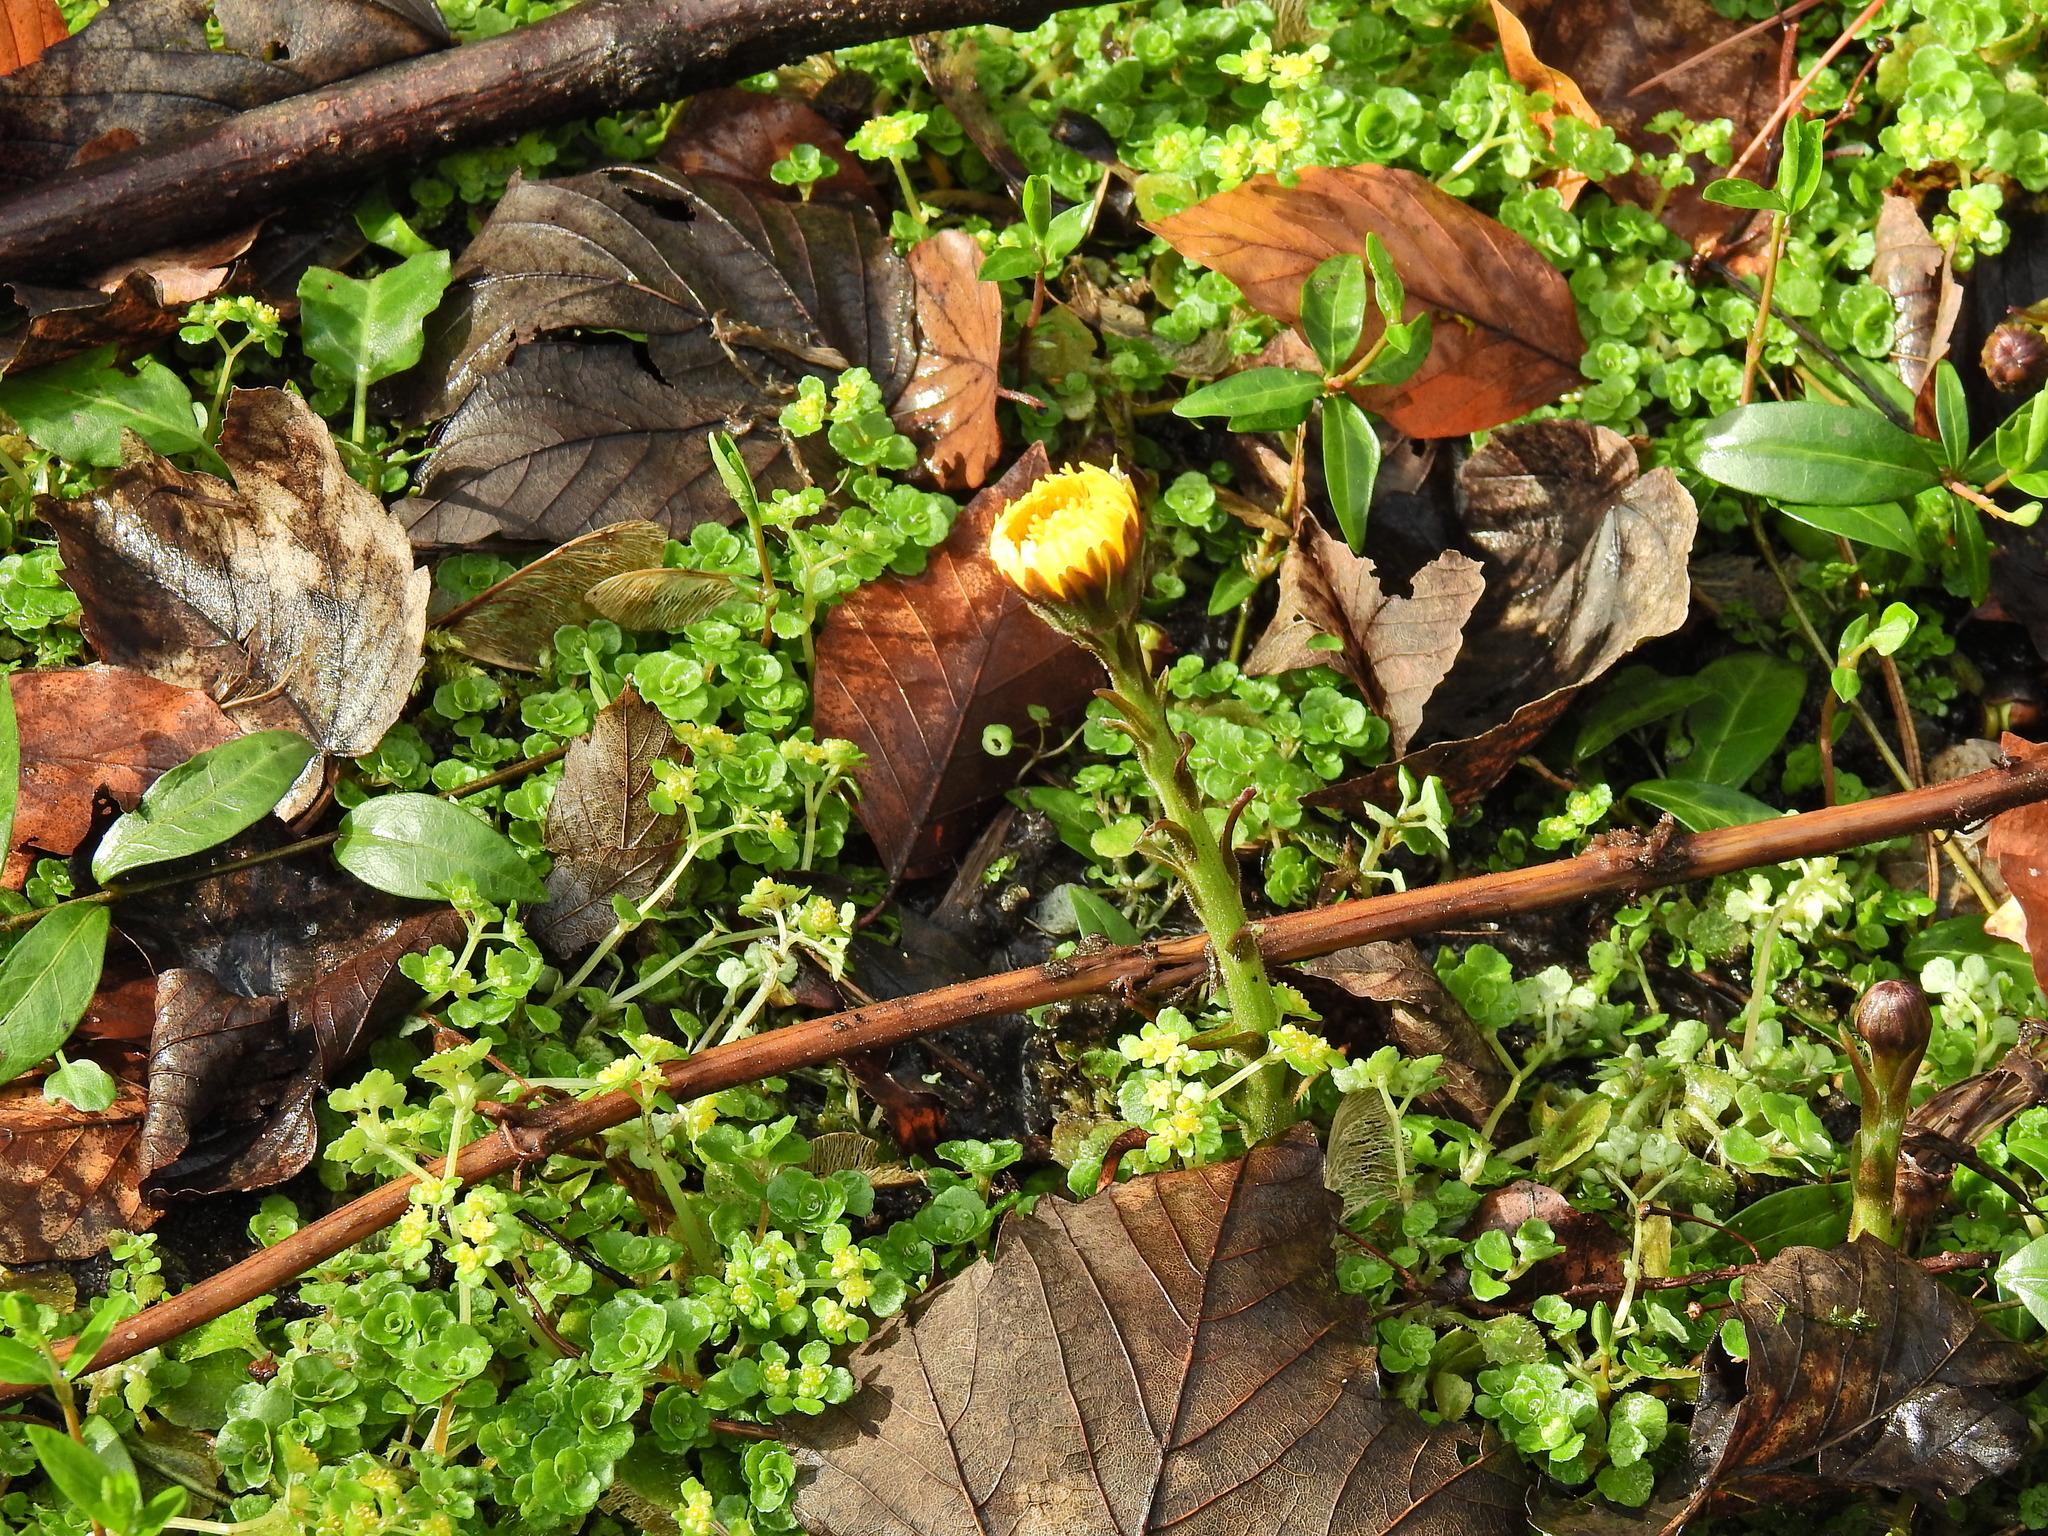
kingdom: Plantae
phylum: Tracheophyta
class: Magnoliopsida
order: Asterales
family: Asteraceae
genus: Tussilago
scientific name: Tussilago farfara
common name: Coltsfoot
